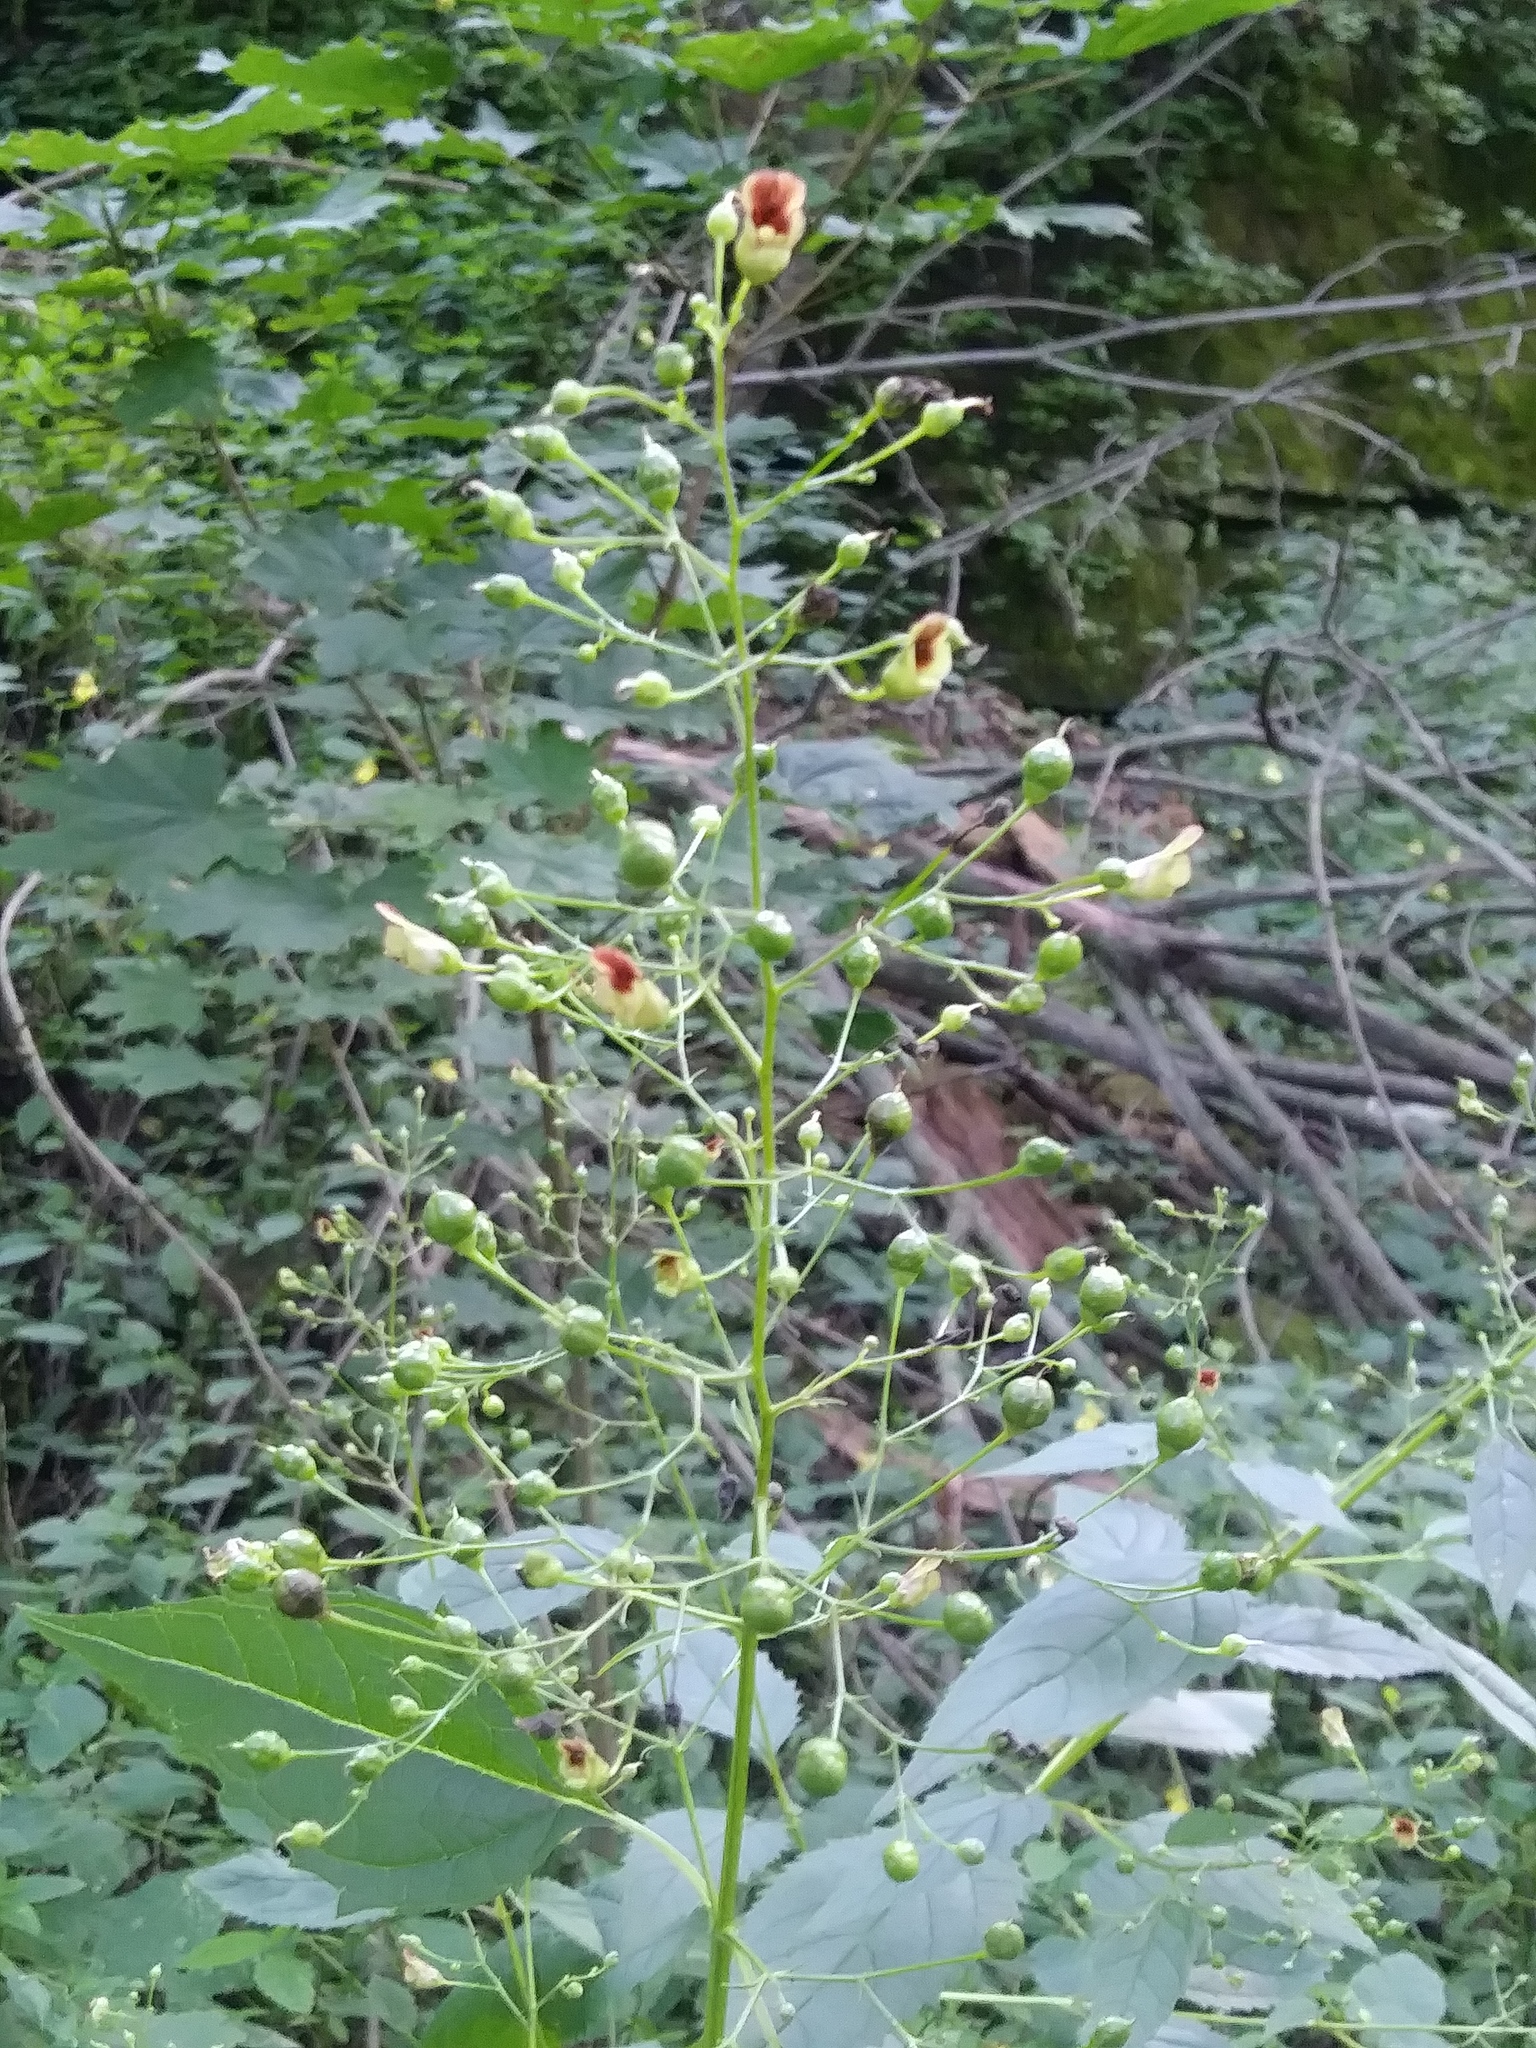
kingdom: Plantae
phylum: Tracheophyta
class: Magnoliopsida
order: Lamiales
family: Scrophulariaceae
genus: Scrophularia
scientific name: Scrophularia marilandica
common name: Eastern figwort
